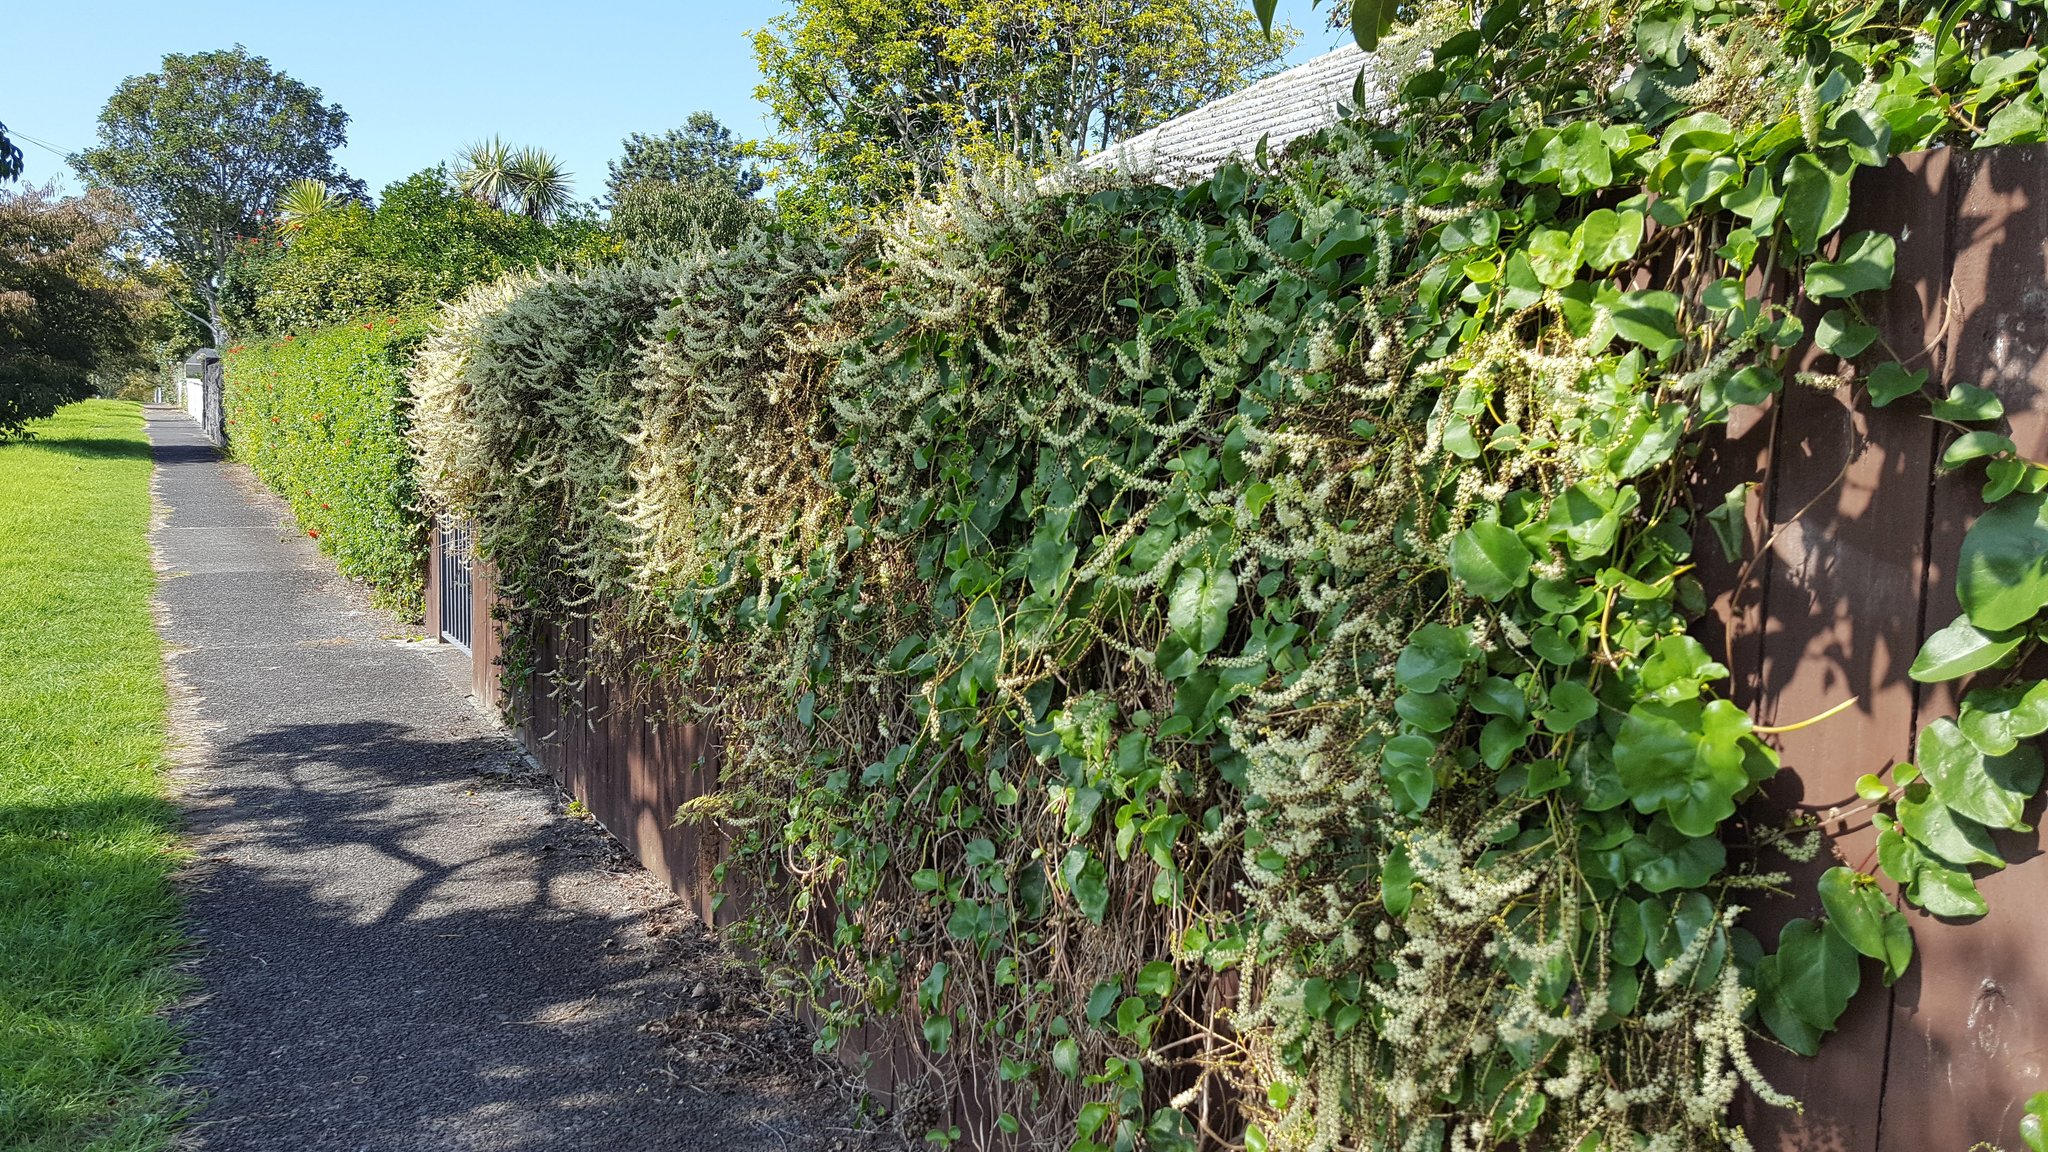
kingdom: Plantae
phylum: Tracheophyta
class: Magnoliopsida
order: Caryophyllales
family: Basellaceae
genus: Anredera
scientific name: Anredera cordifolia
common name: Heartleaf madeiravine
